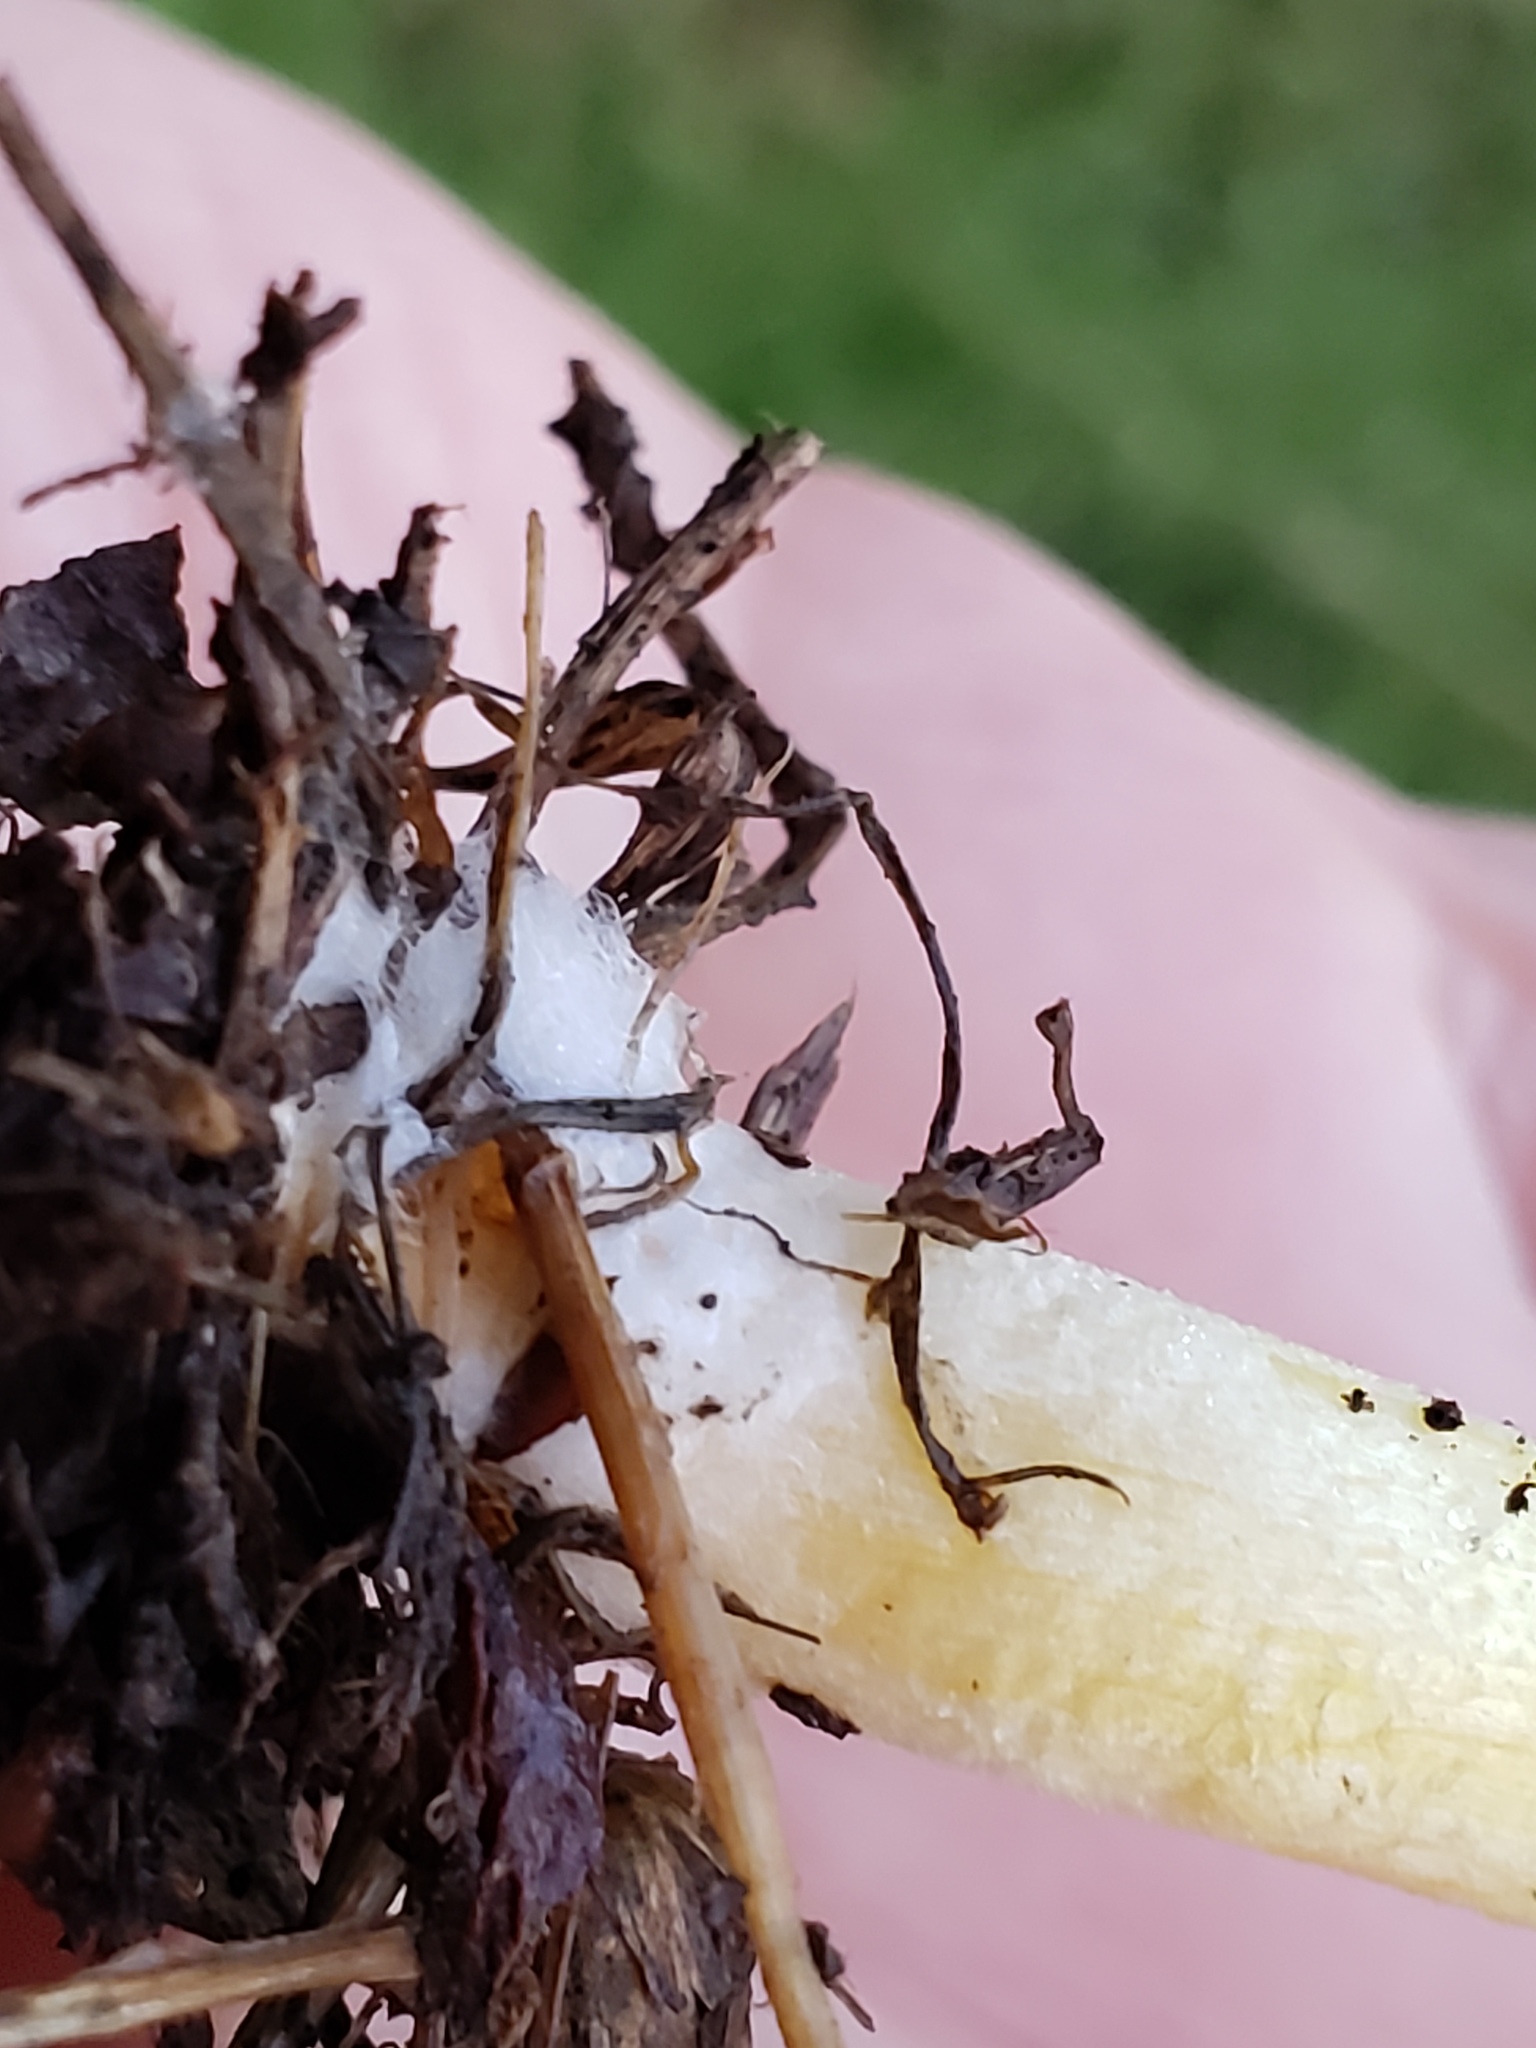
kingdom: Fungi
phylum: Basidiomycota
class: Agaricomycetes
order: Agaricales
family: Bolbitiaceae
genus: Bolbitius
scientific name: Bolbitius titubans
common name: Yellow fieldcap
